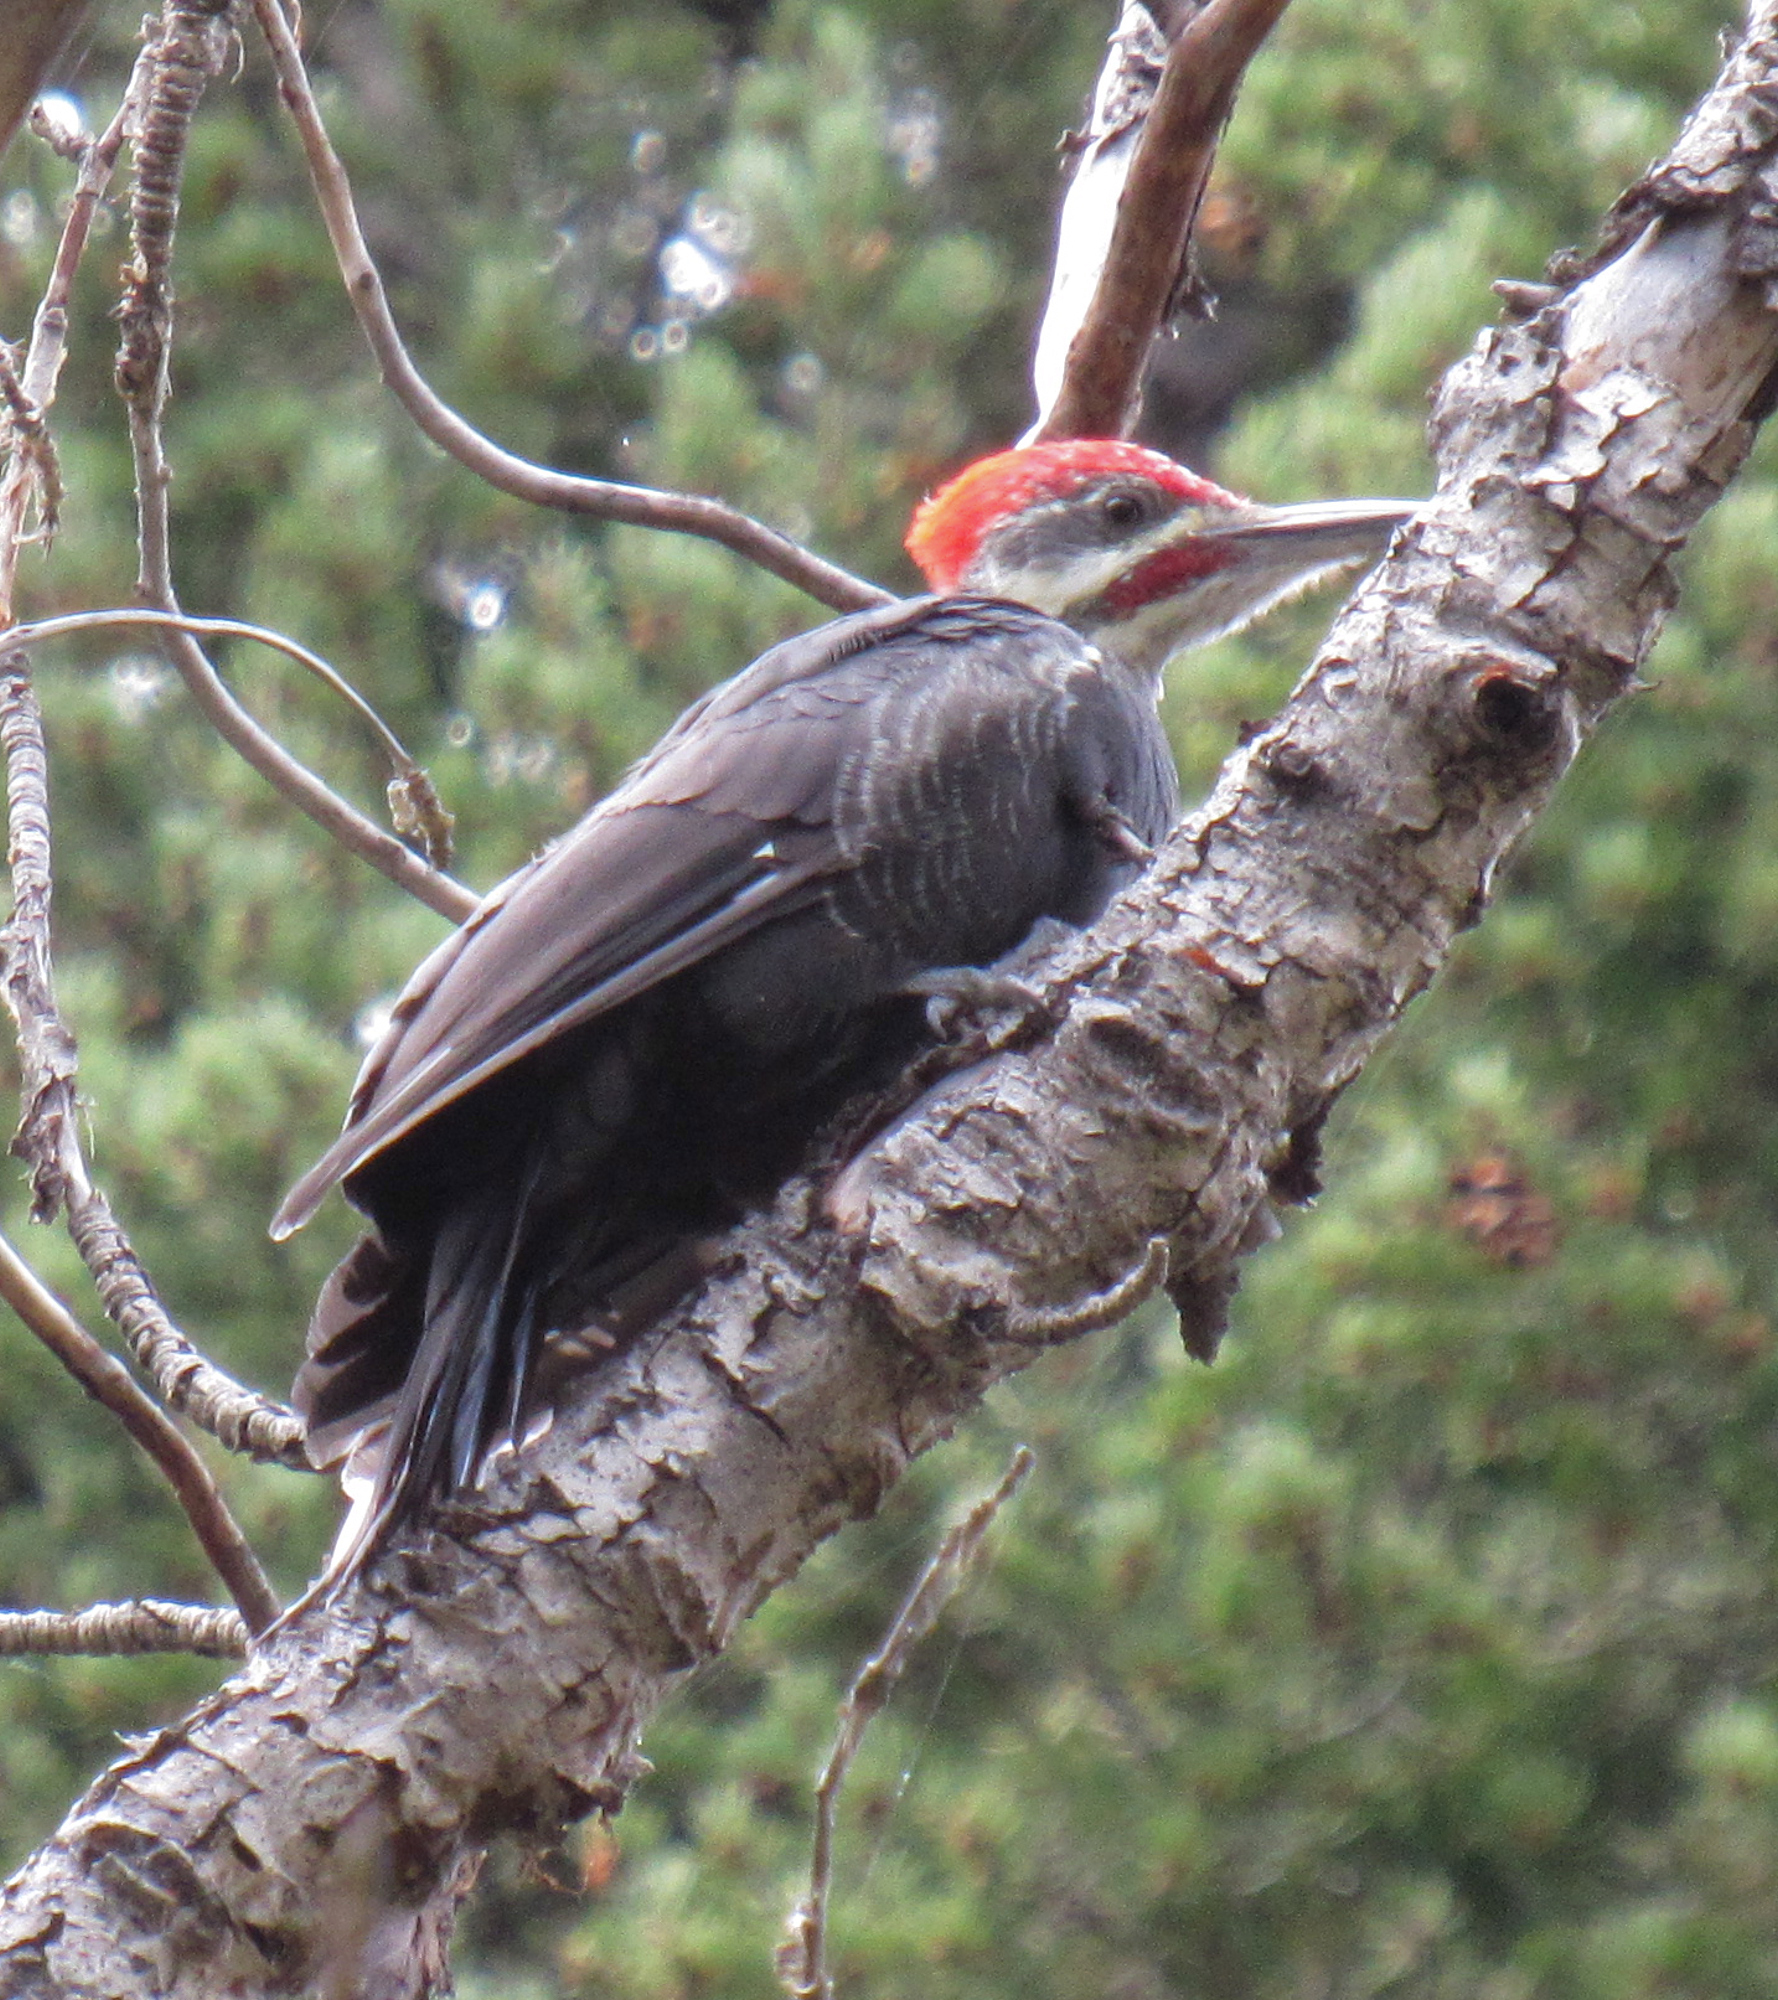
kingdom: Animalia
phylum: Chordata
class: Aves
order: Piciformes
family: Picidae
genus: Dryocopus
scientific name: Dryocopus pileatus
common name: Pileated woodpecker
